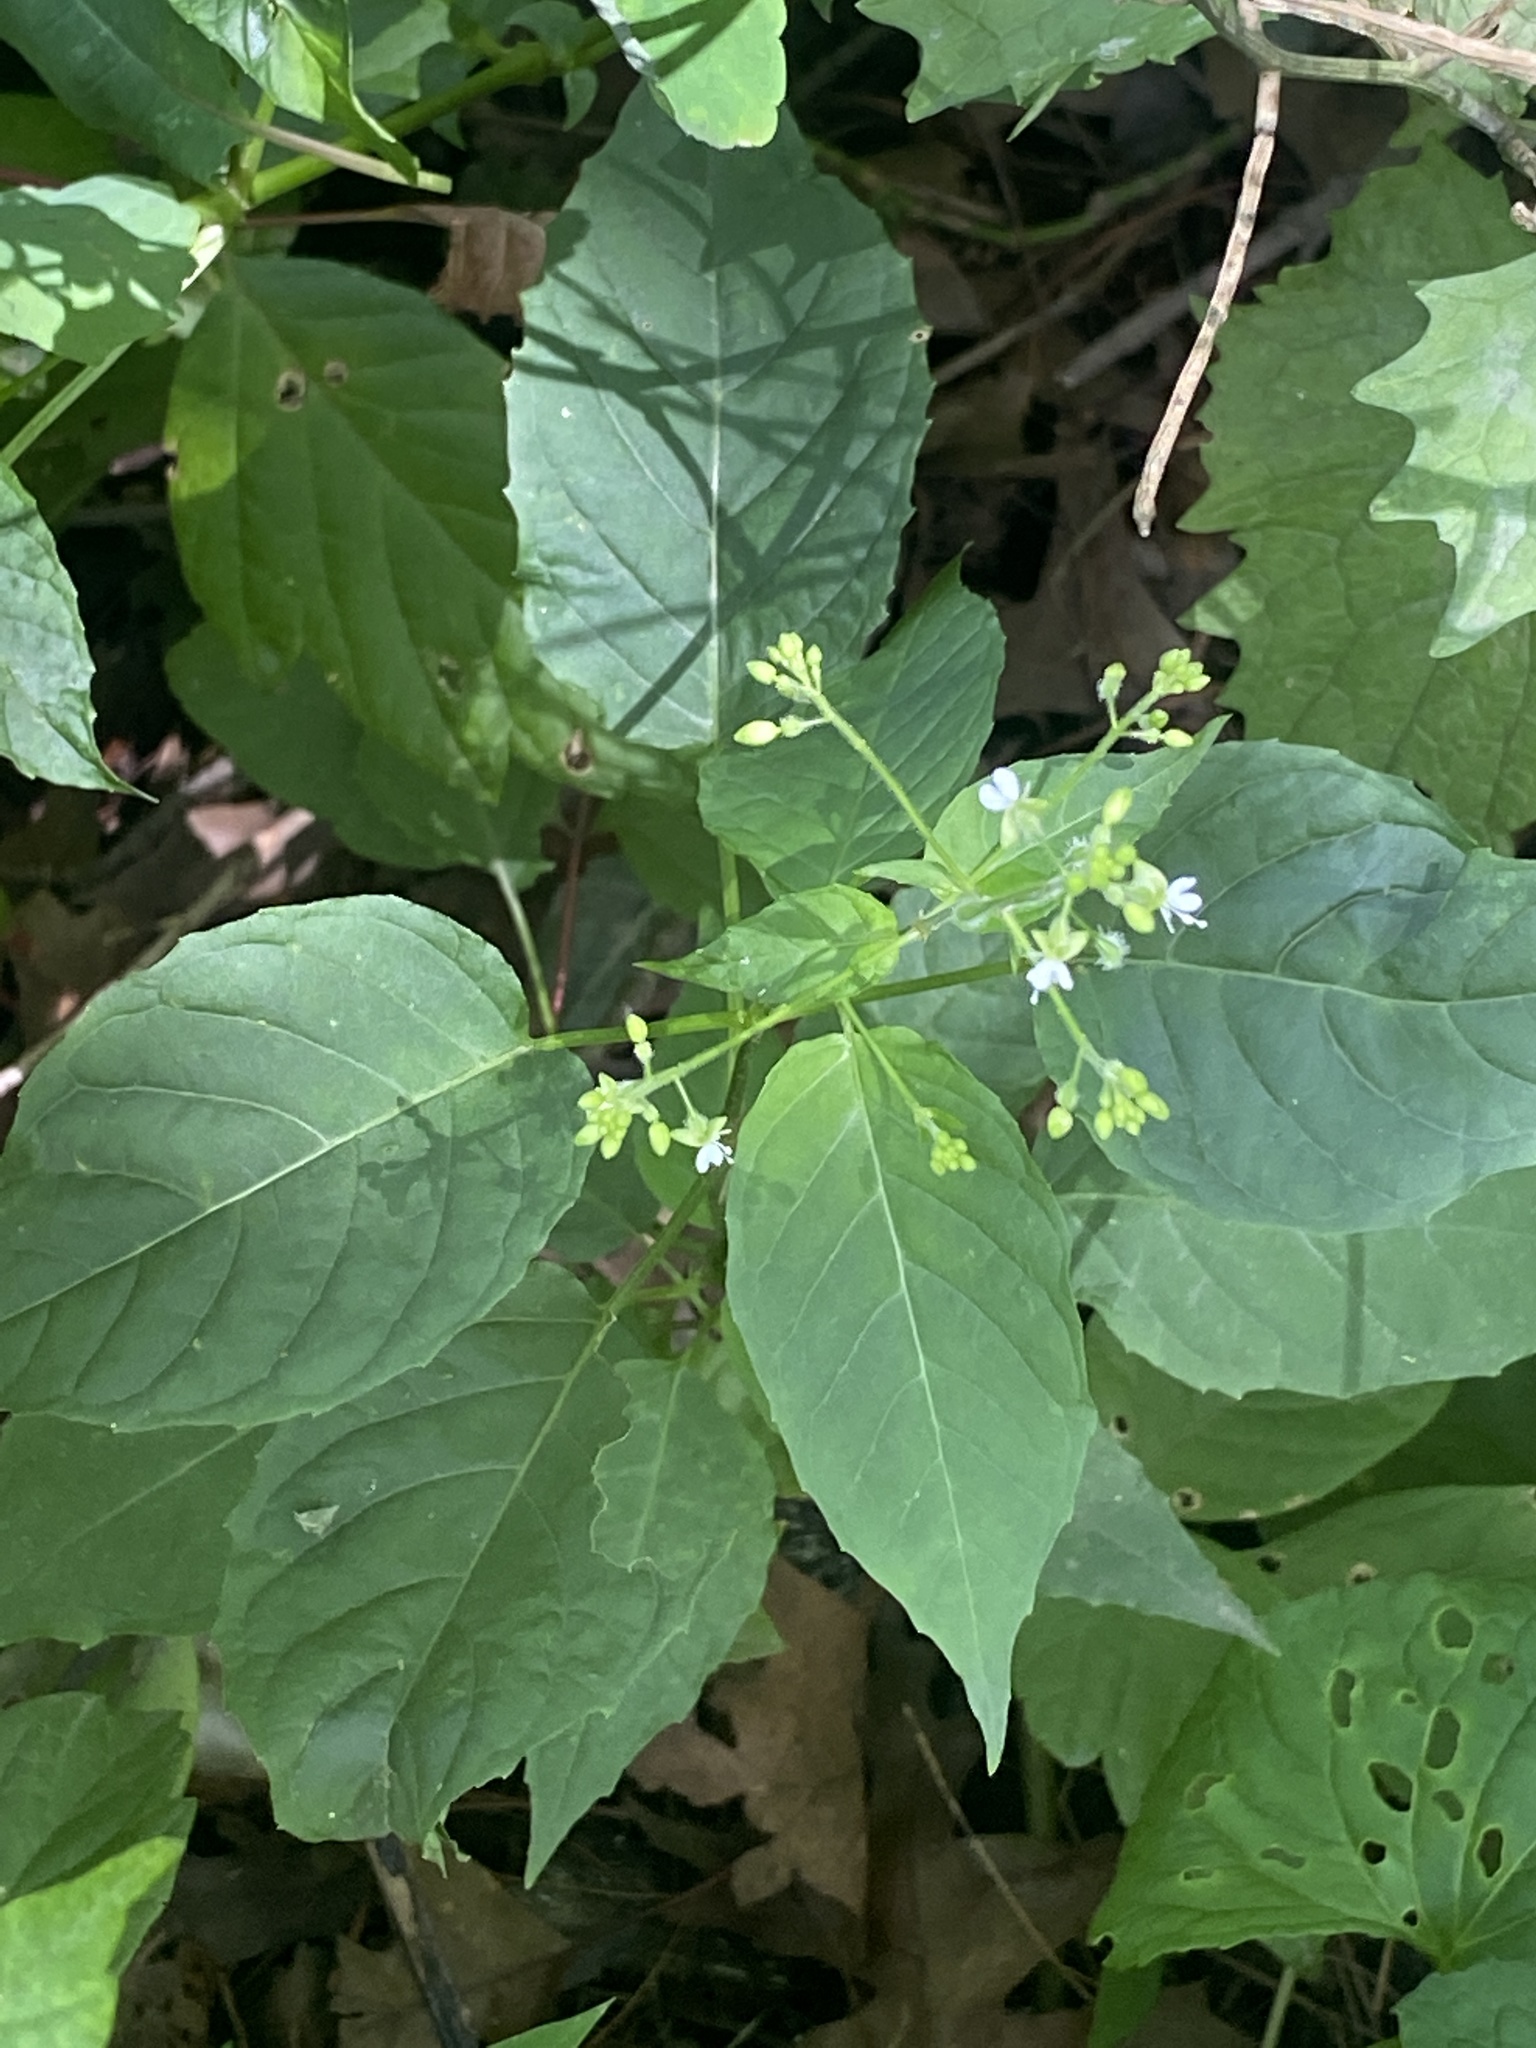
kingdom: Plantae
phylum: Tracheophyta
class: Magnoliopsida
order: Myrtales
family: Onagraceae
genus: Circaea
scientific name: Circaea canadensis
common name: Broad-leaved enchanter's nightshade
